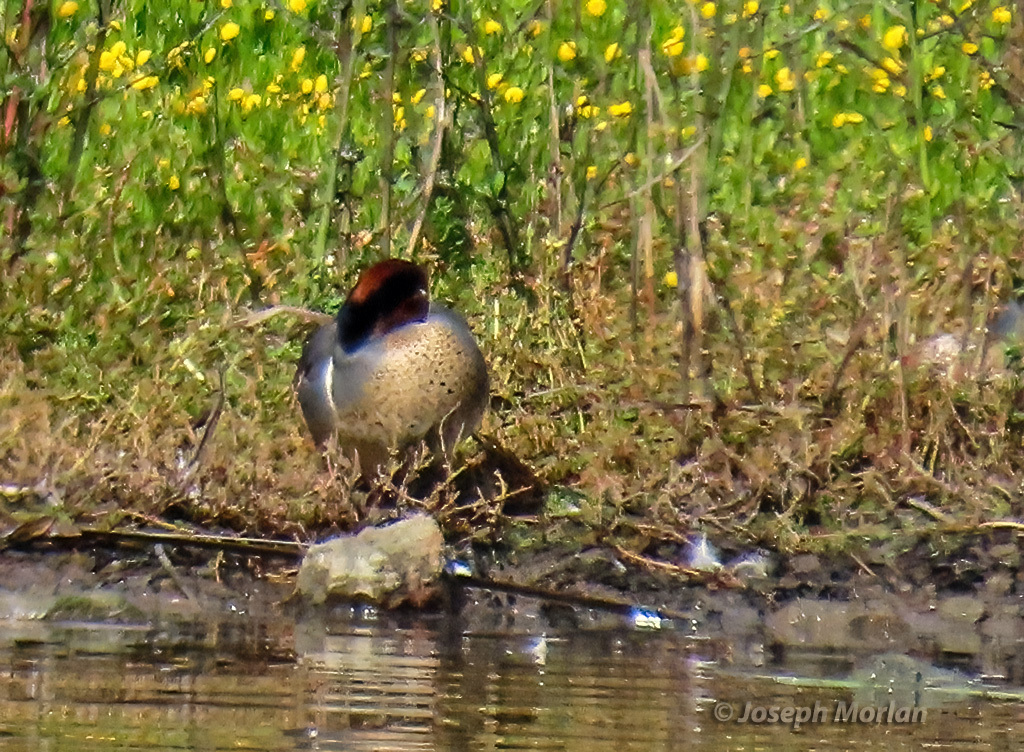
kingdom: Animalia
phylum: Chordata
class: Aves
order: Anseriformes
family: Anatidae
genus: Anas
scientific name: Anas crecca
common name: Eurasian teal
